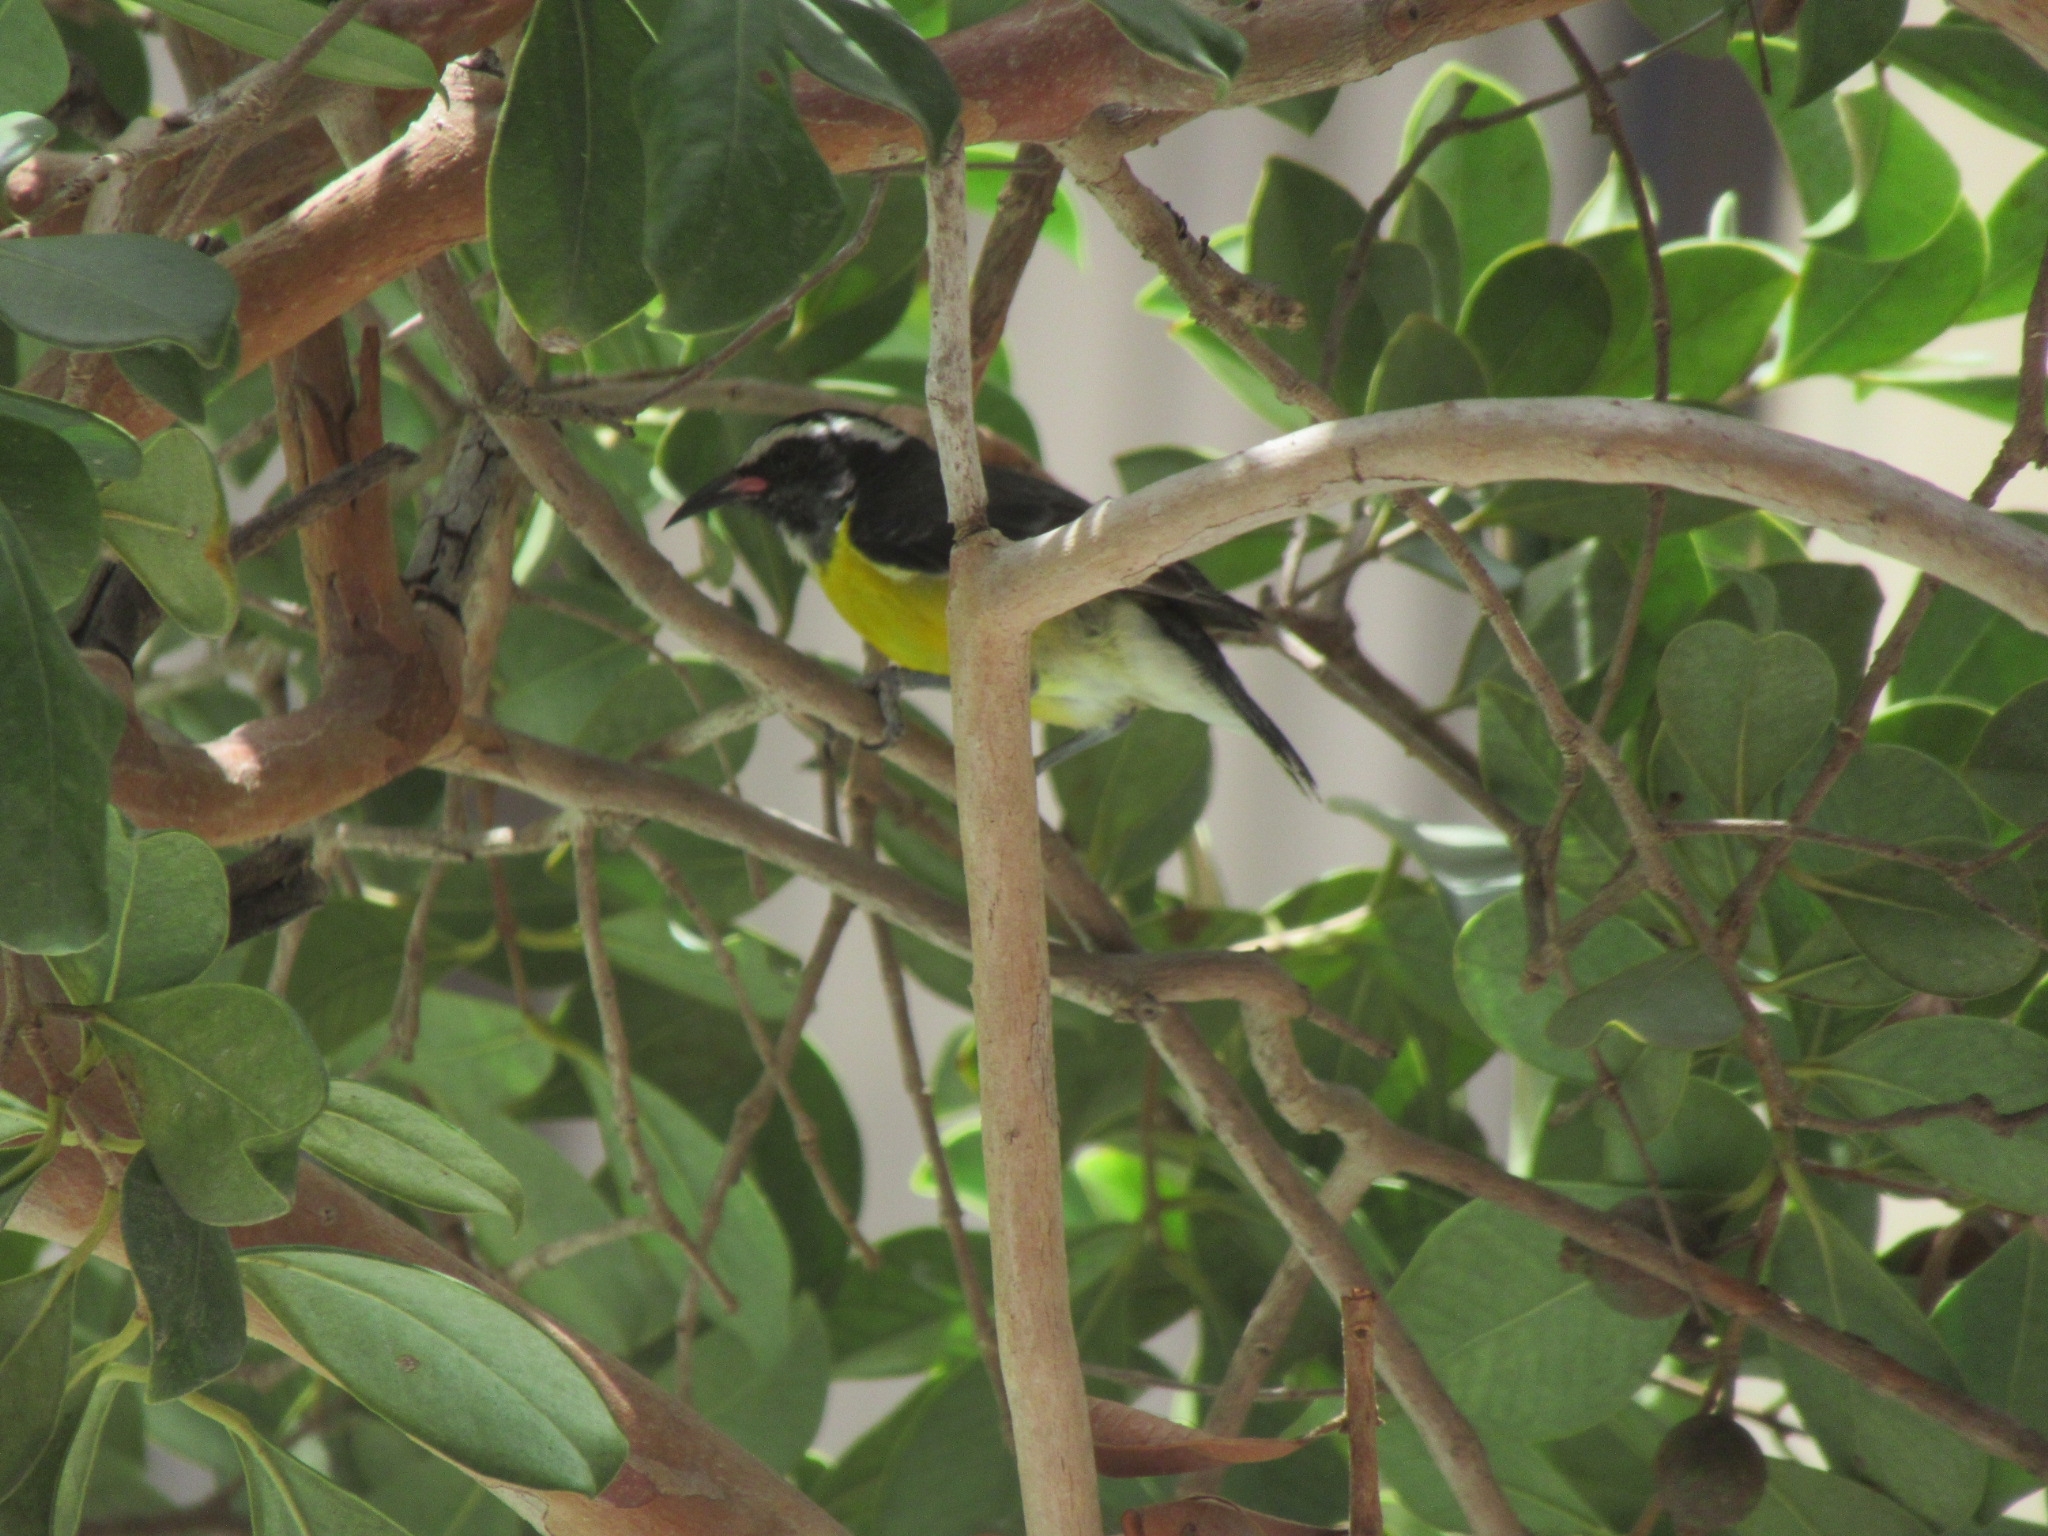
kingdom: Animalia
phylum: Chordata
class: Aves
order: Passeriformes
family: Thraupidae
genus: Coereba
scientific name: Coereba flaveola
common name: Bananaquit
